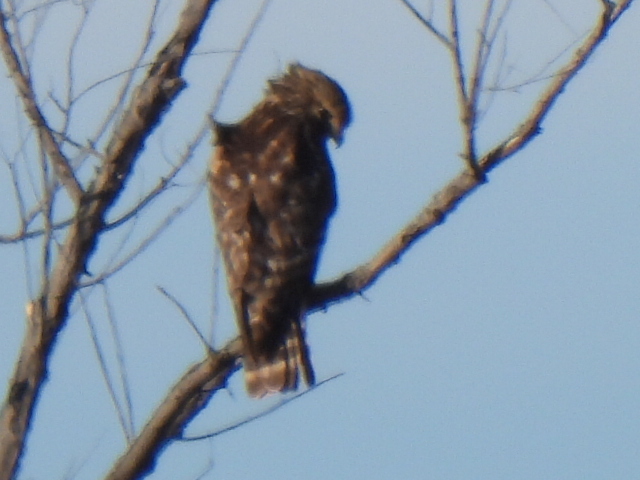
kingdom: Animalia
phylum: Chordata
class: Aves
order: Accipitriformes
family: Accipitridae
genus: Buteo
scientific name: Buteo lineatus
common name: Red-shouldered hawk
